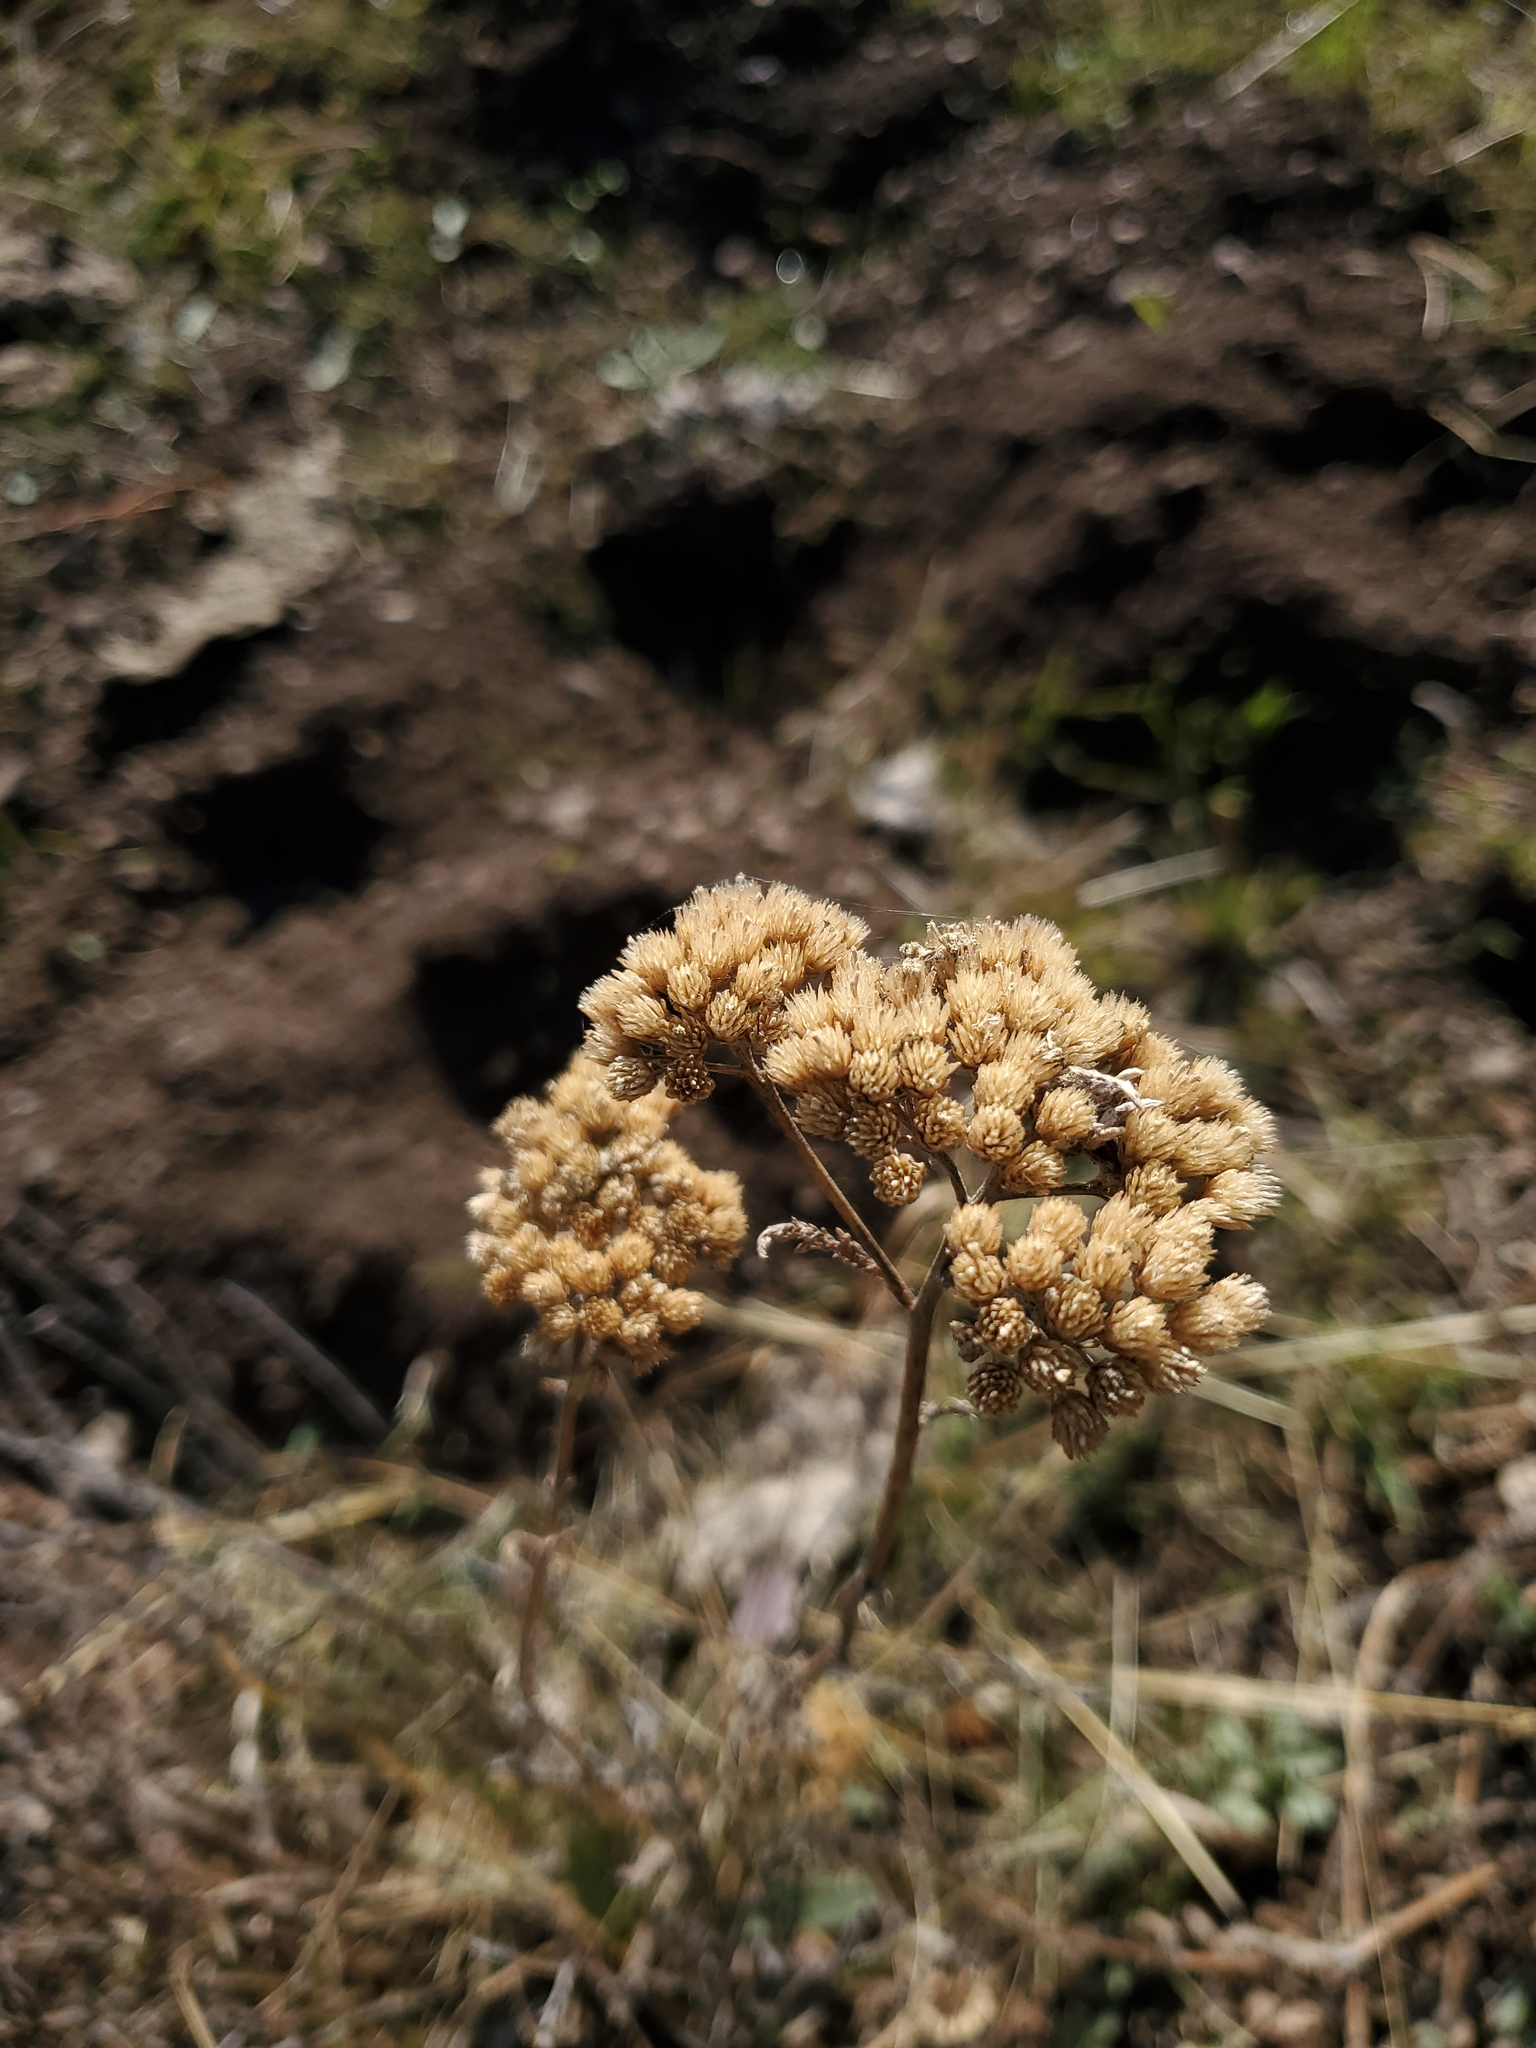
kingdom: Plantae
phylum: Tracheophyta
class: Magnoliopsida
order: Asterales
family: Asteraceae
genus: Achillea
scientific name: Achillea millefolium
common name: Yarrow
